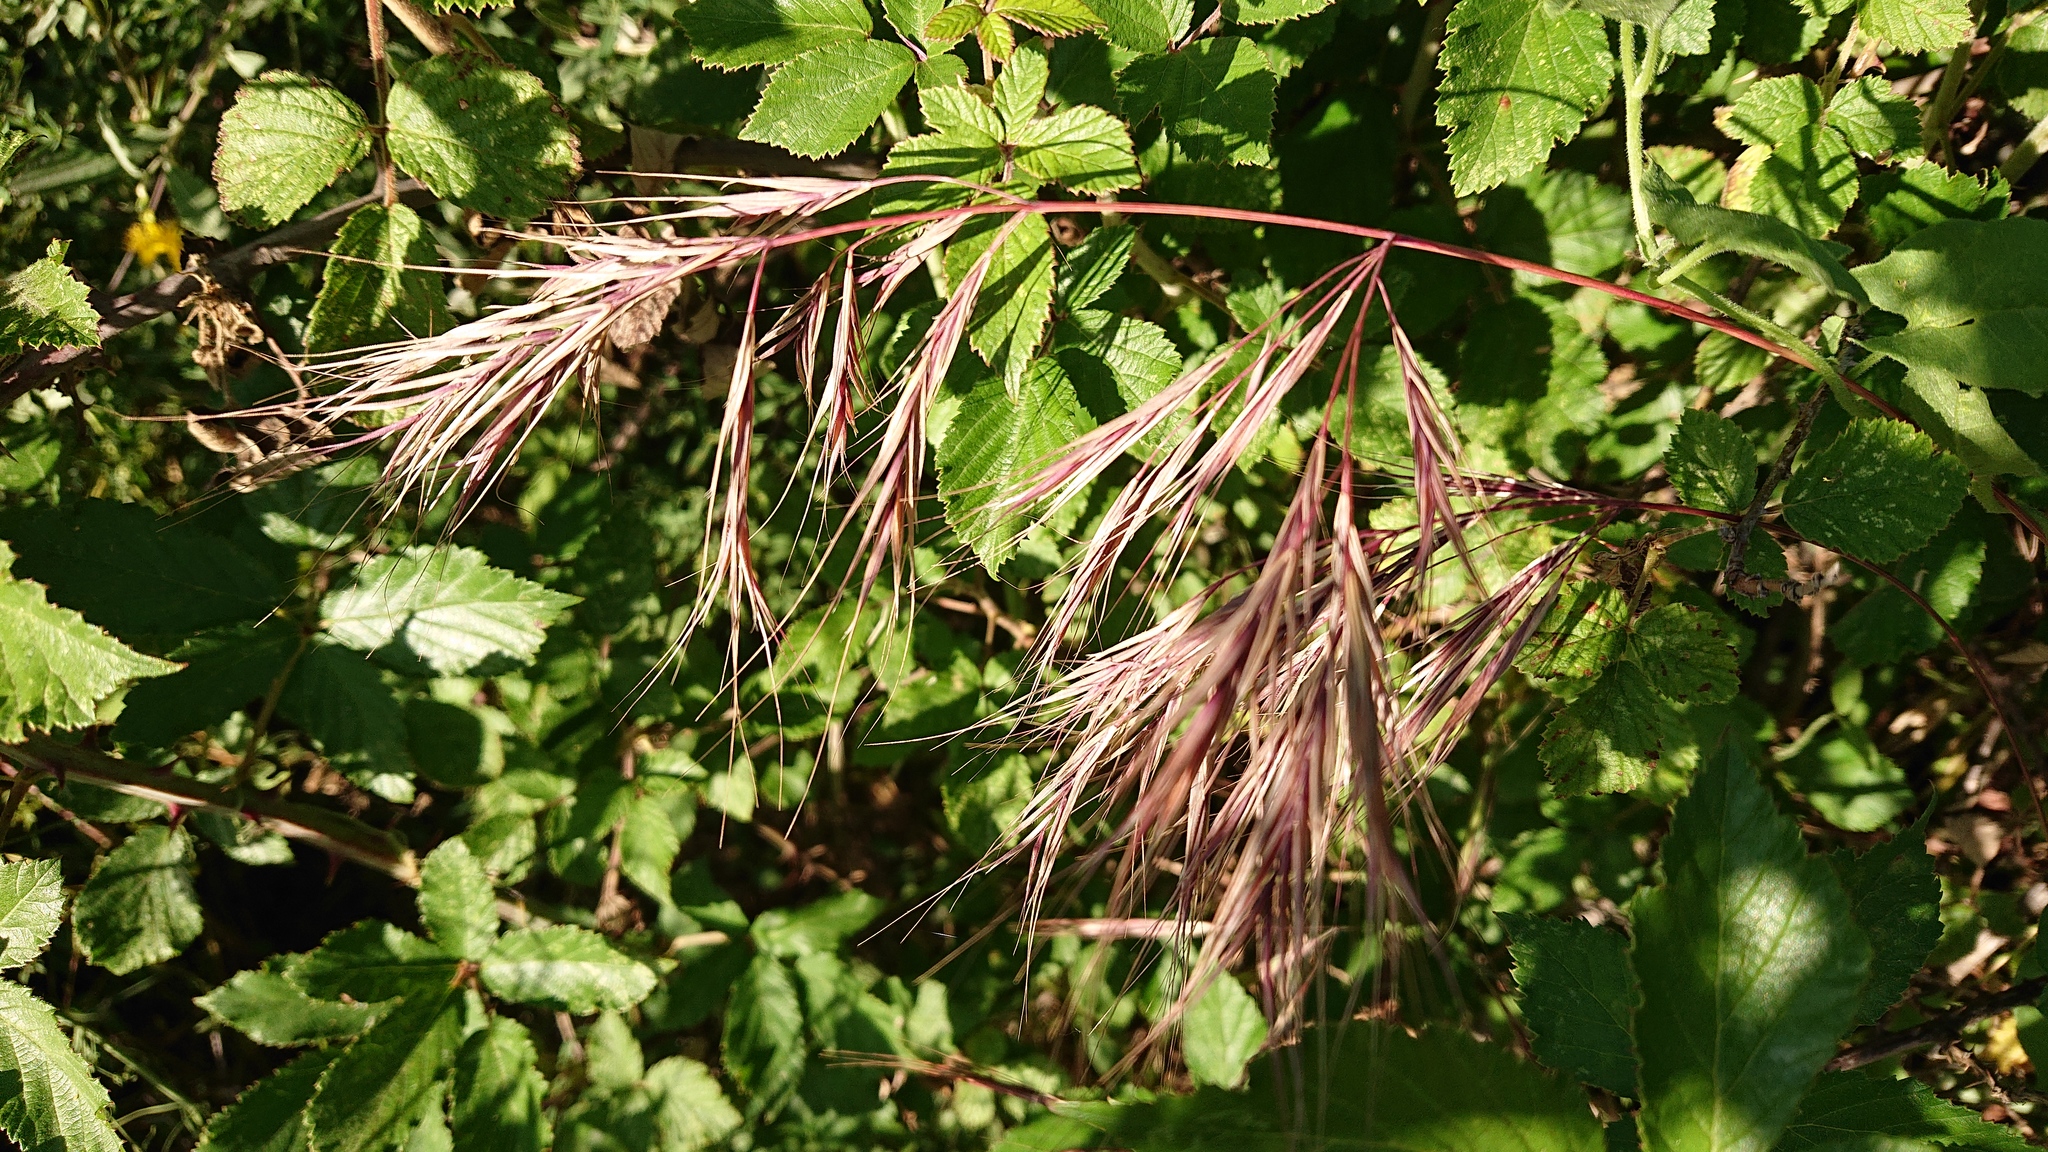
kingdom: Plantae
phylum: Tracheophyta
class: Liliopsida
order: Poales
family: Poaceae
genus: Bromus
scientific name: Bromus rubens
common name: Red brome
